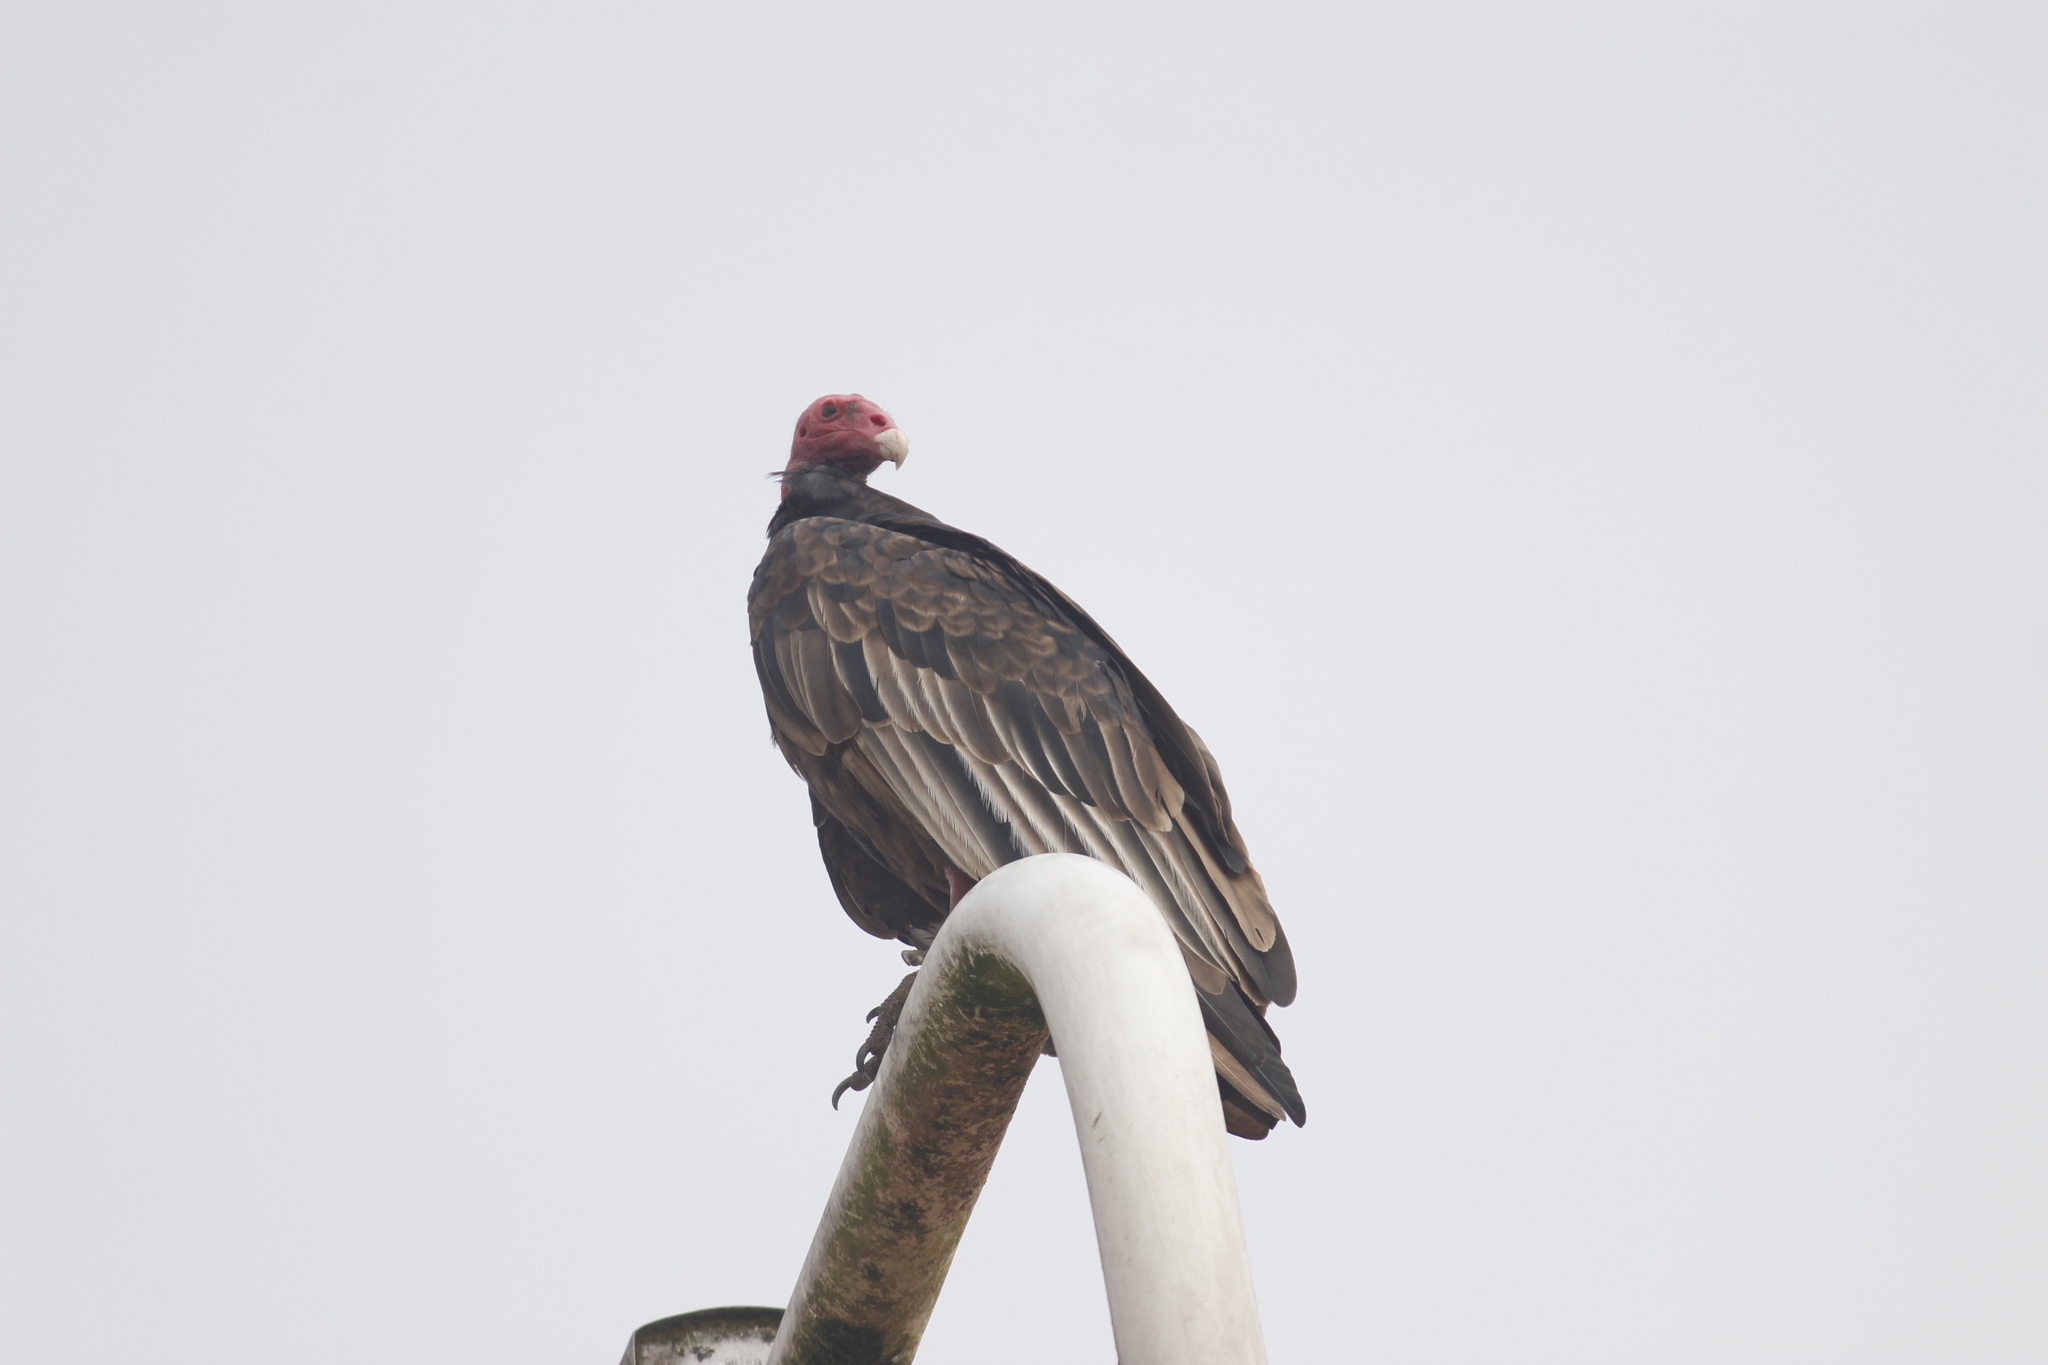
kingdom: Animalia
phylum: Chordata
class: Aves
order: Accipitriformes
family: Cathartidae
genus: Cathartes
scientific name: Cathartes aura
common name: Turkey vulture
